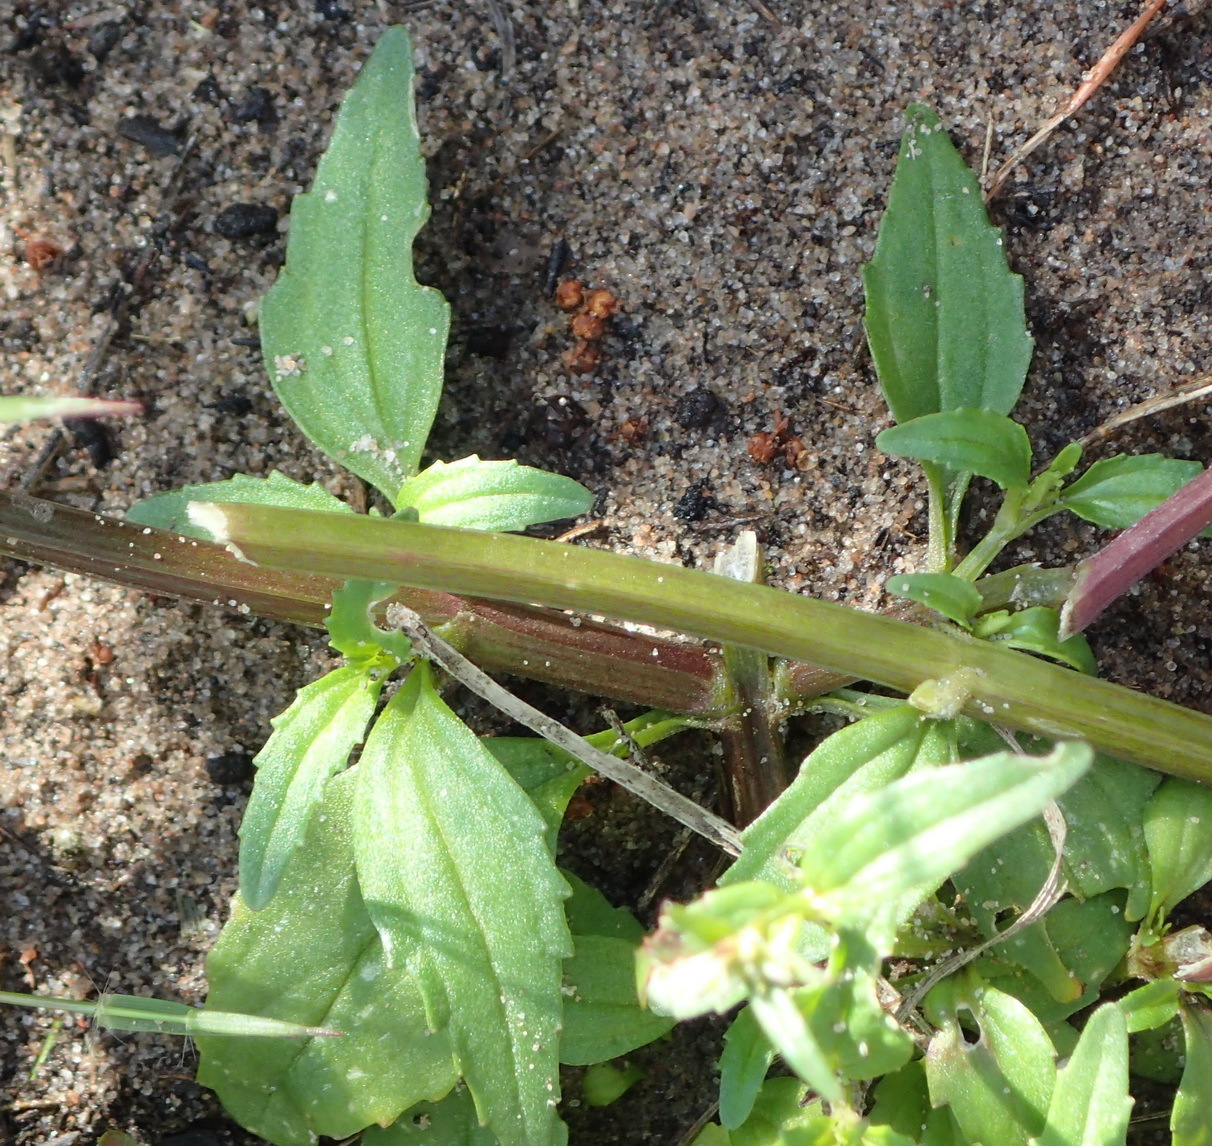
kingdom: Plantae
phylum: Tracheophyta
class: Magnoliopsida
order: Lamiales
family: Scrophulariaceae
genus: Nemesia
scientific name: Nemesia leipoldtii
